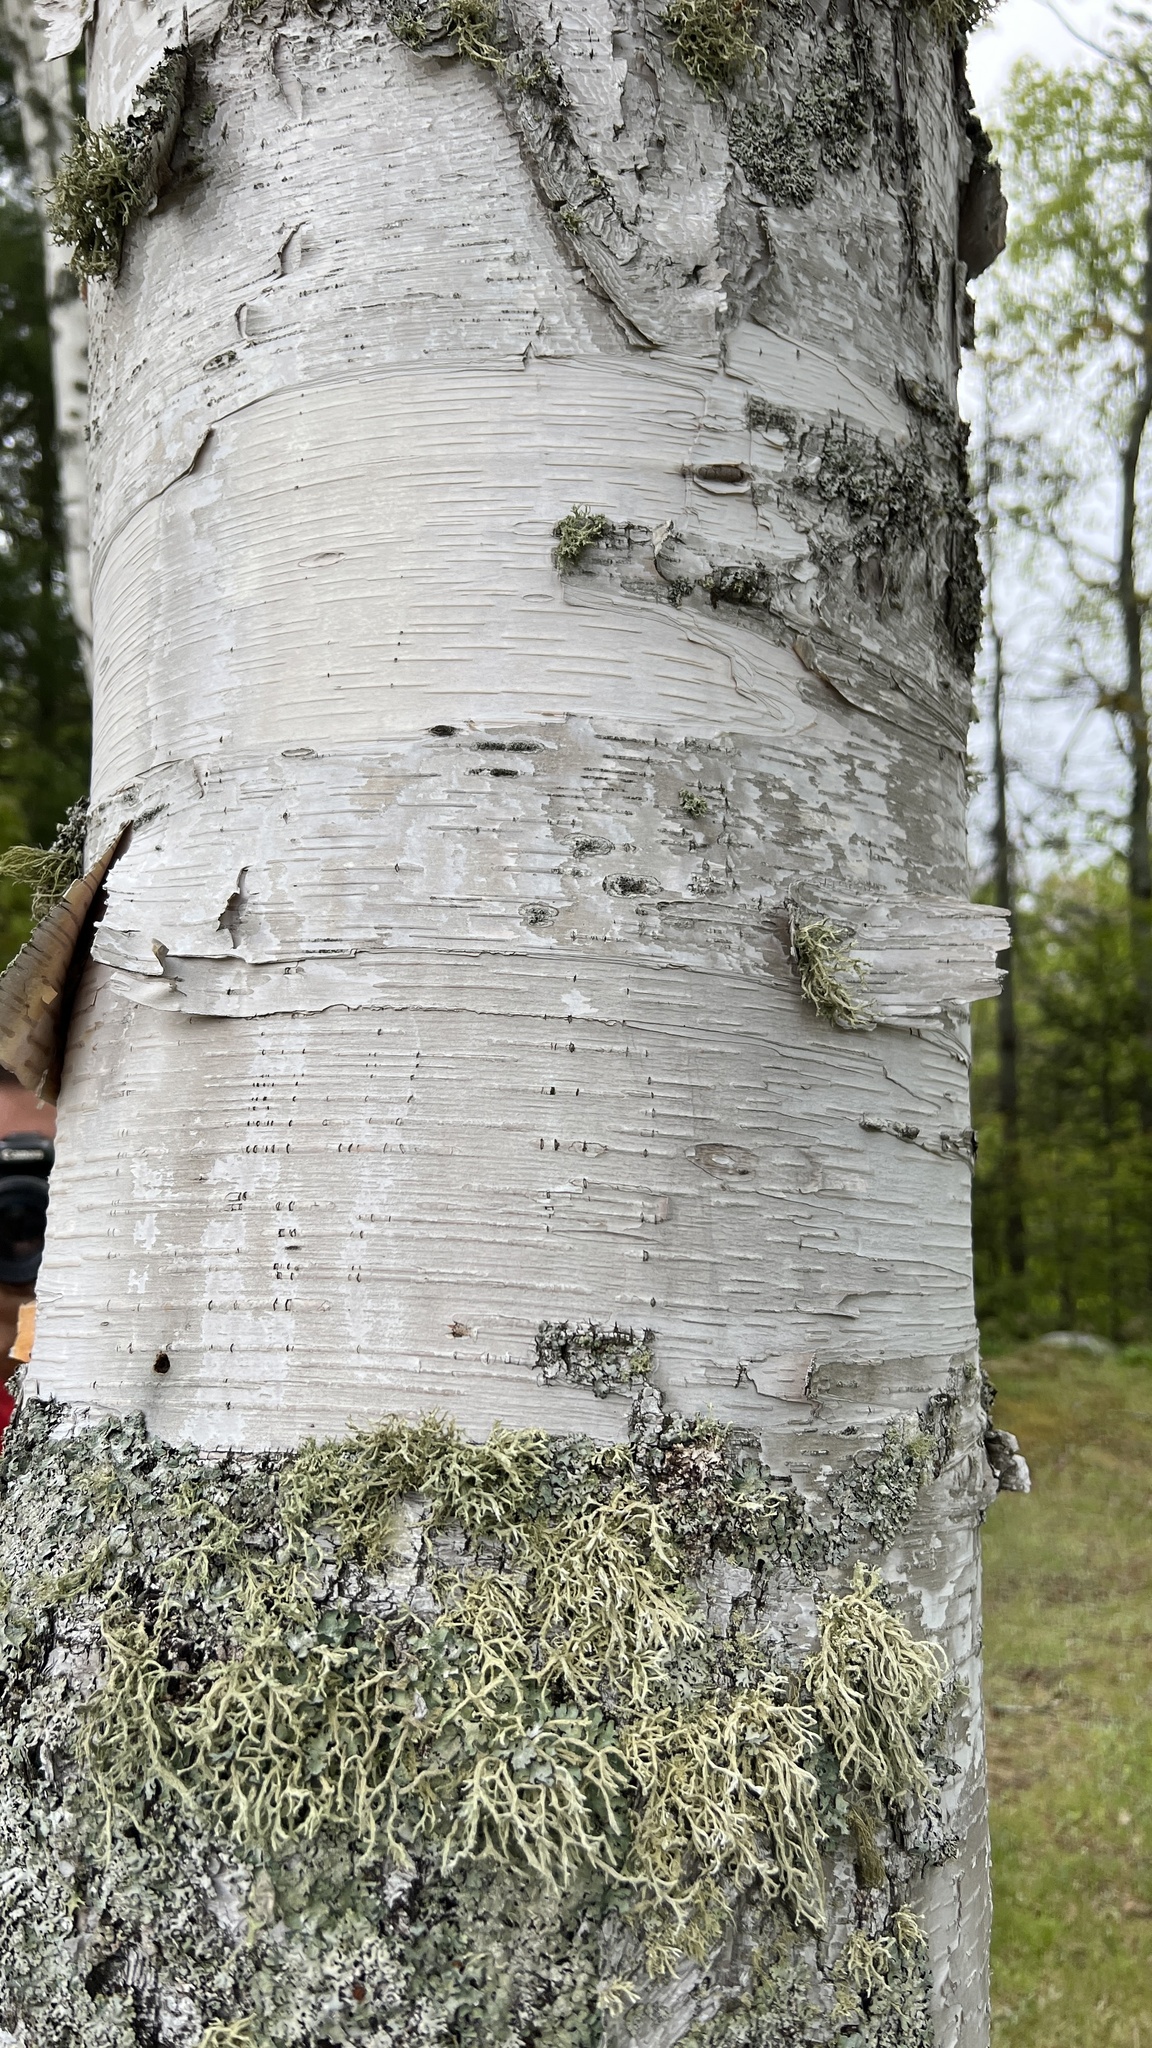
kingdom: Plantae
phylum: Tracheophyta
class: Magnoliopsida
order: Fagales
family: Betulaceae
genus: Betula
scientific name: Betula papyrifera
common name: Paper birch
